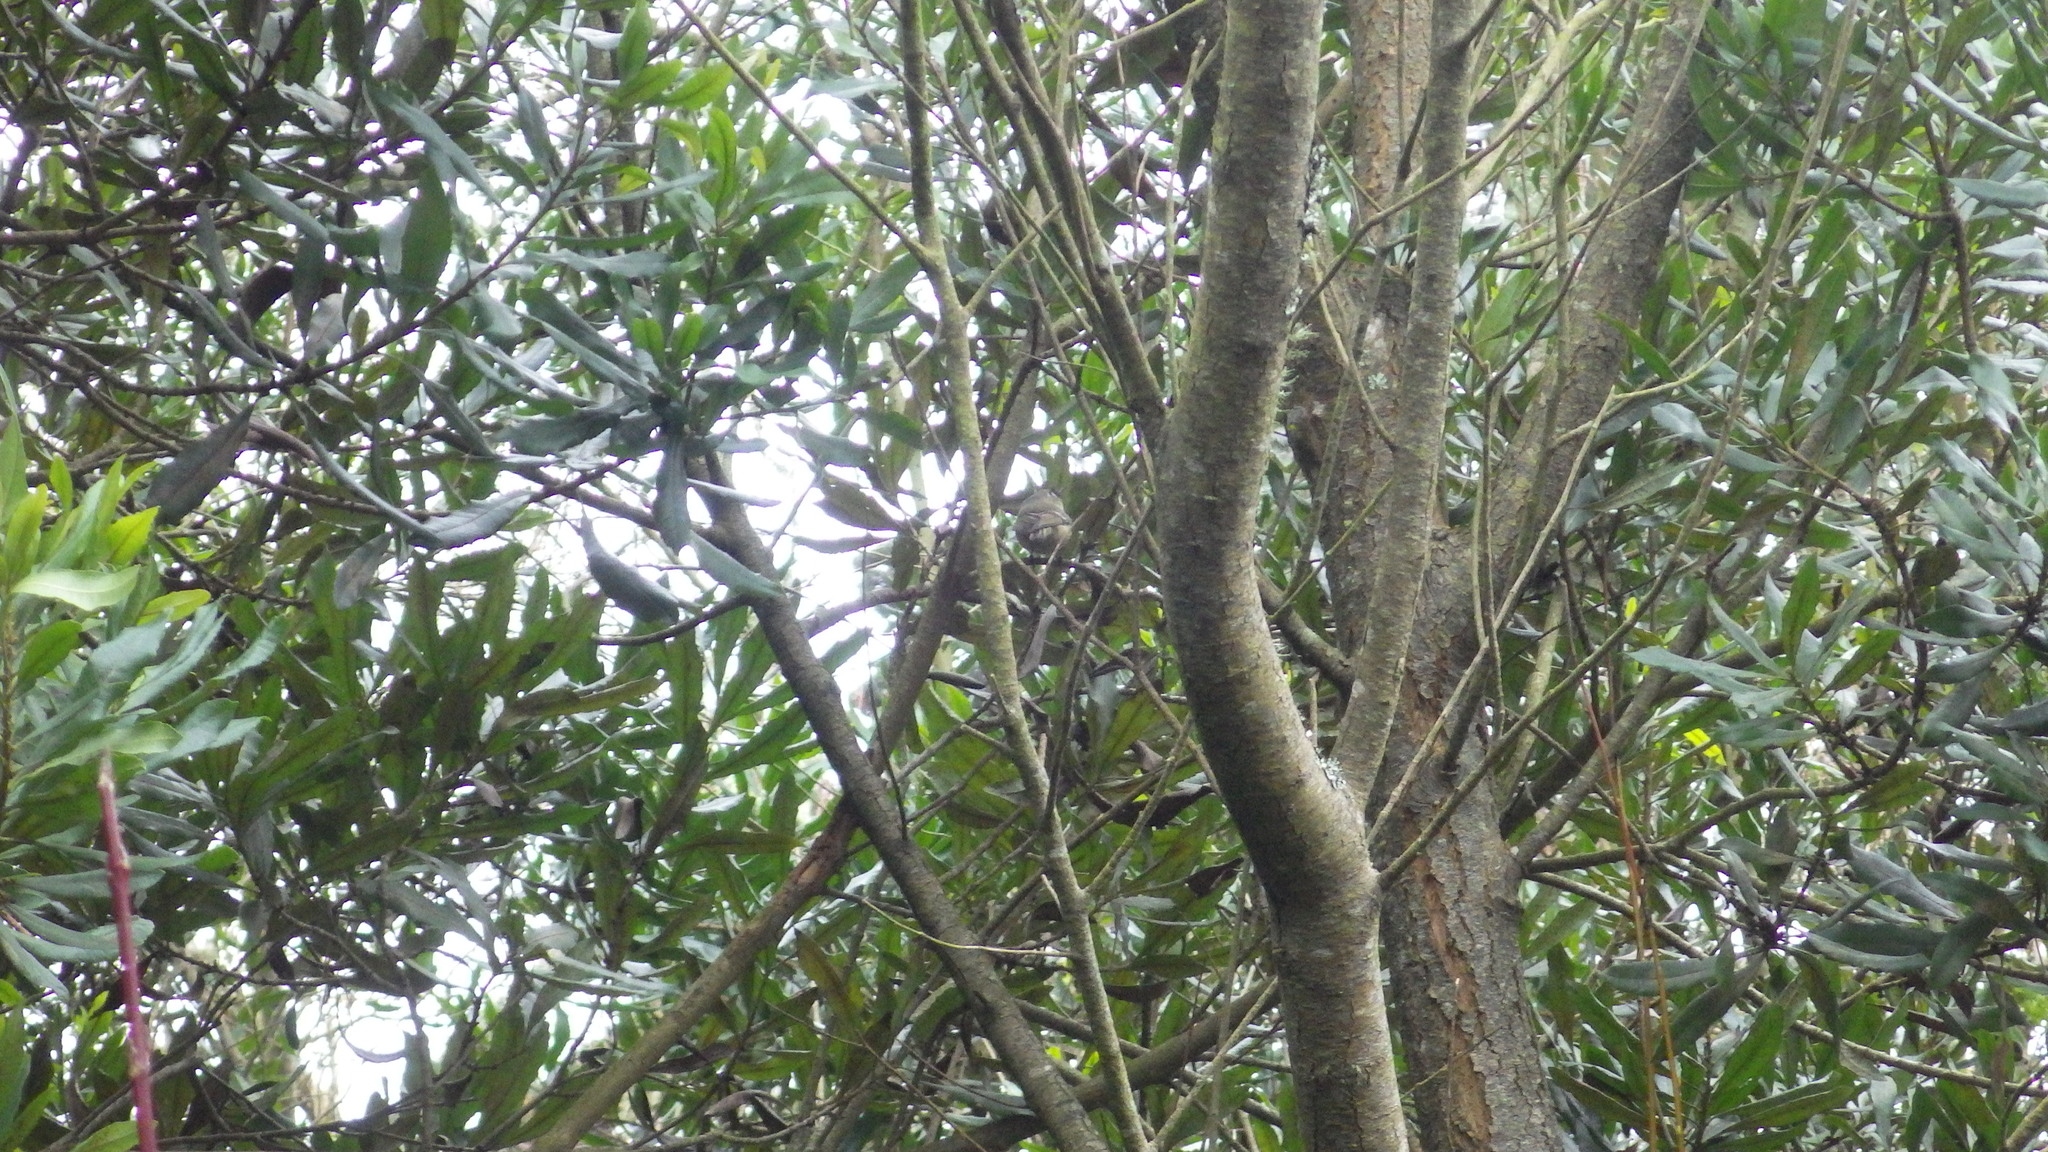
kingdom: Animalia
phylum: Chordata
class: Aves
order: Passeriformes
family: Regulidae
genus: Regulus
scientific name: Regulus calendula
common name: Ruby-crowned kinglet
